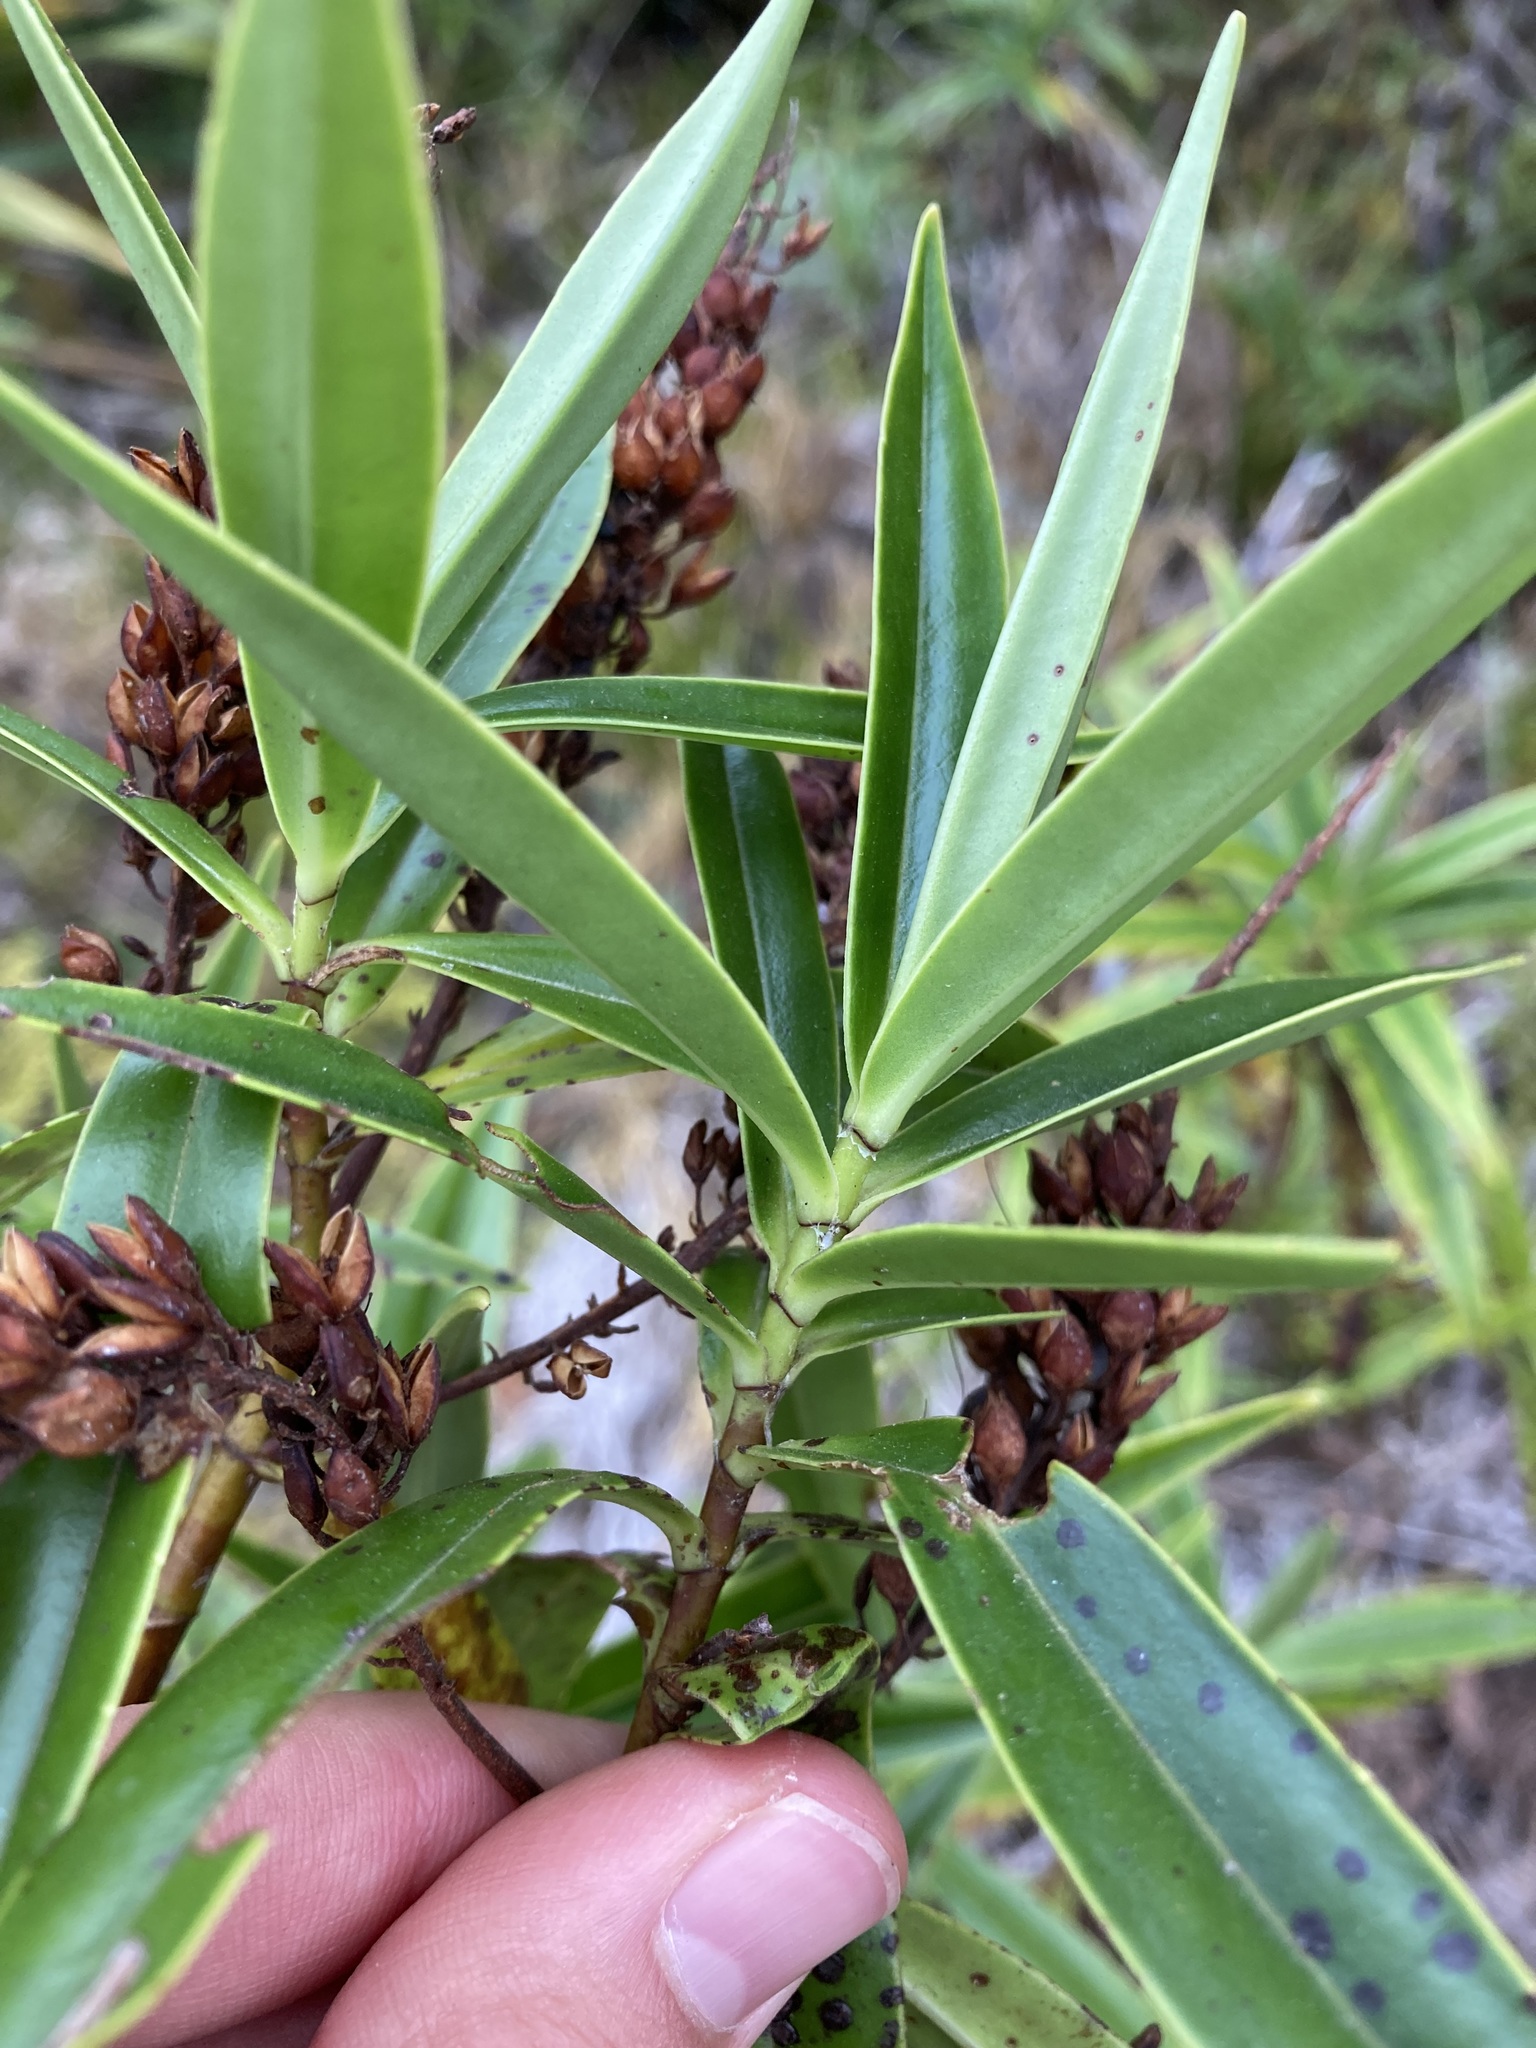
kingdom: Plantae
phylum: Tracheophyta
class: Magnoliopsida
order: Lamiales
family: Plantaginaceae
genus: Veronica
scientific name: Veronica corriganii
